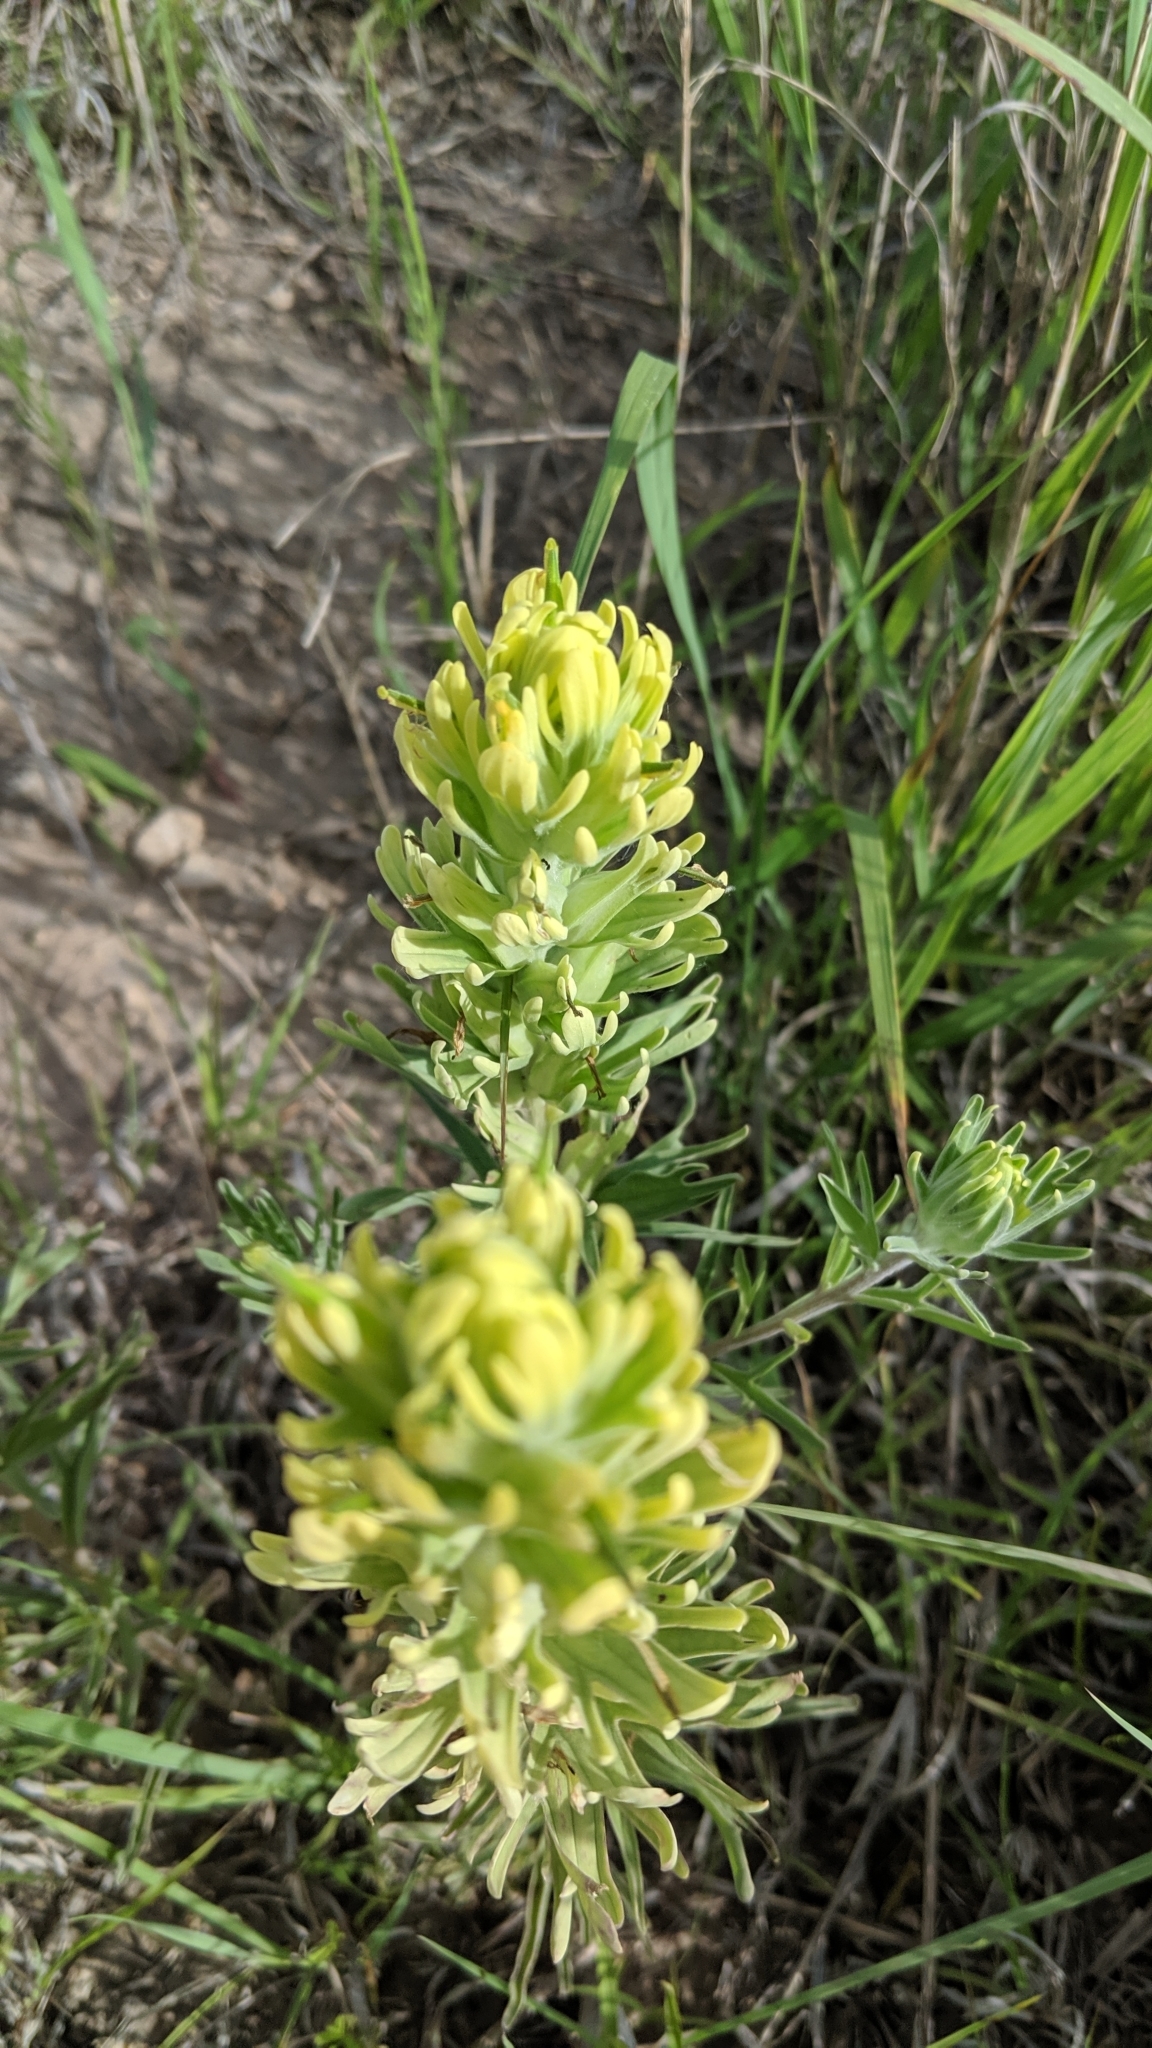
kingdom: Plantae
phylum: Tracheophyta
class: Magnoliopsida
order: Lamiales
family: Orobanchaceae
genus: Castilleja
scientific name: Castilleja citrina
